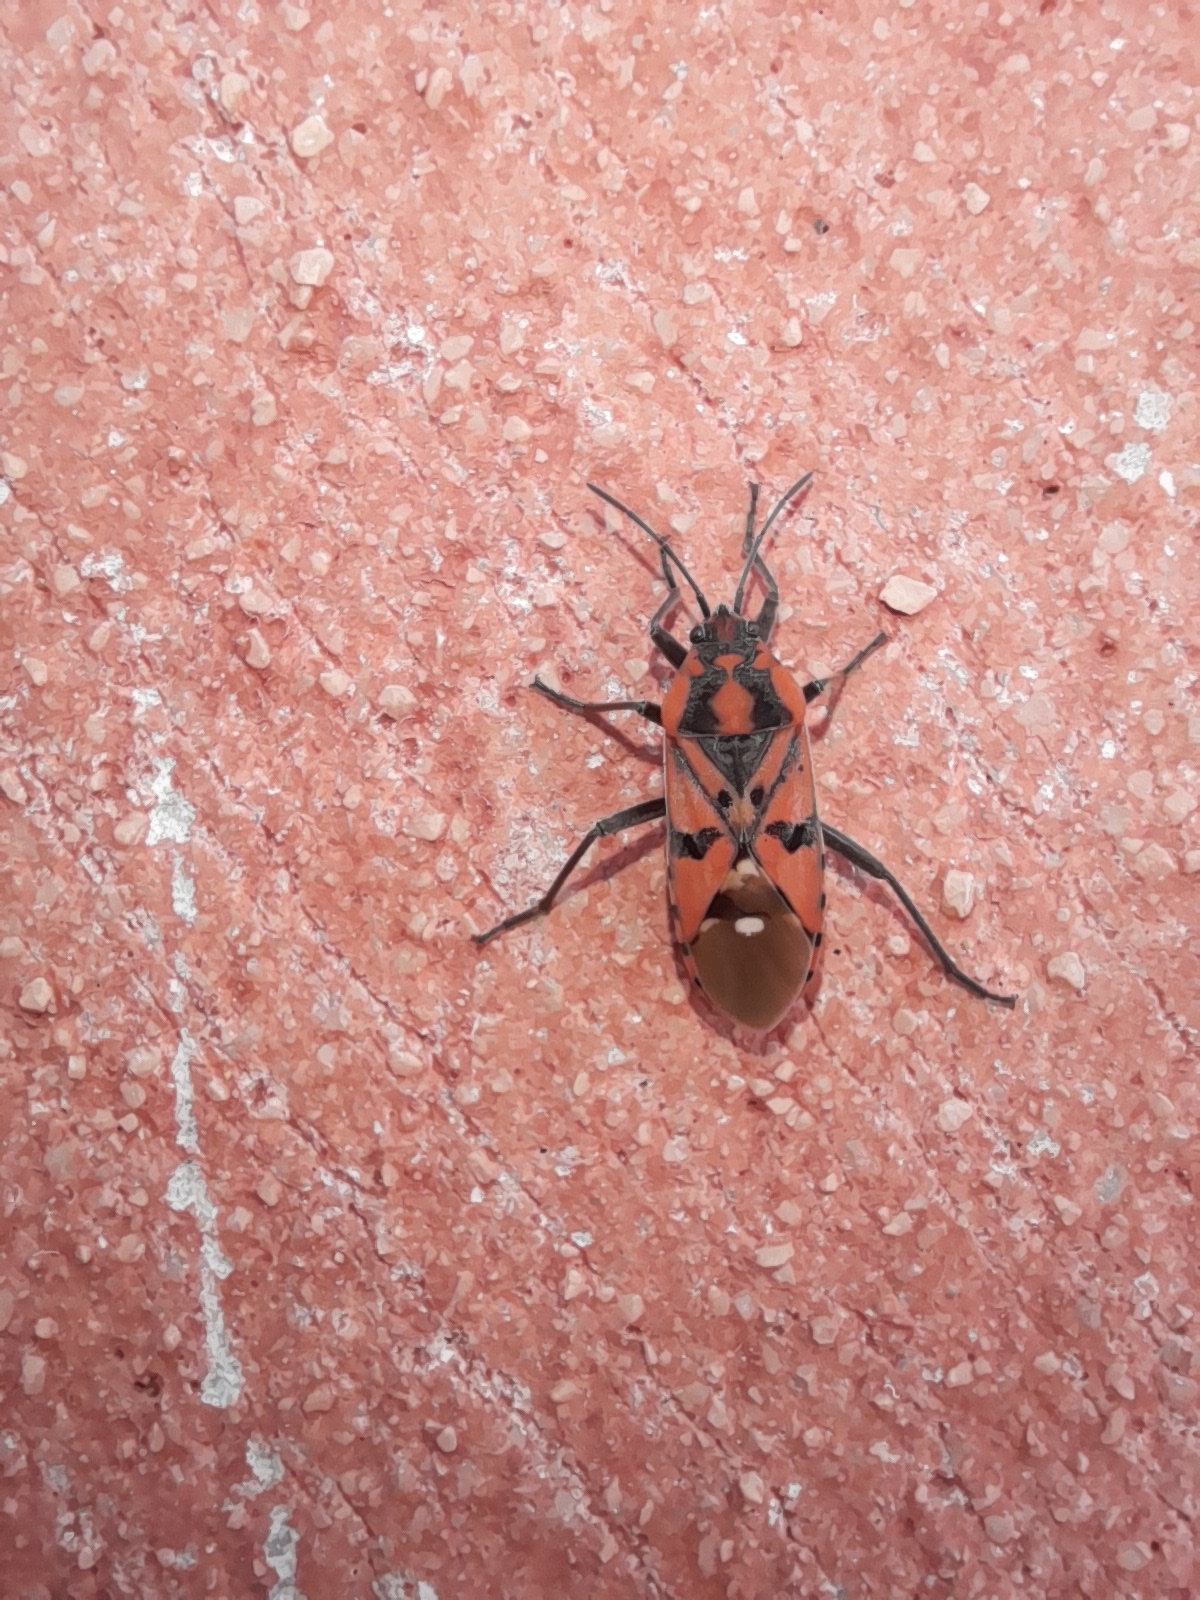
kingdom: Animalia
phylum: Arthropoda
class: Insecta
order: Hemiptera
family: Lygaeidae
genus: Spilostethus
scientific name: Spilostethus pandurus
